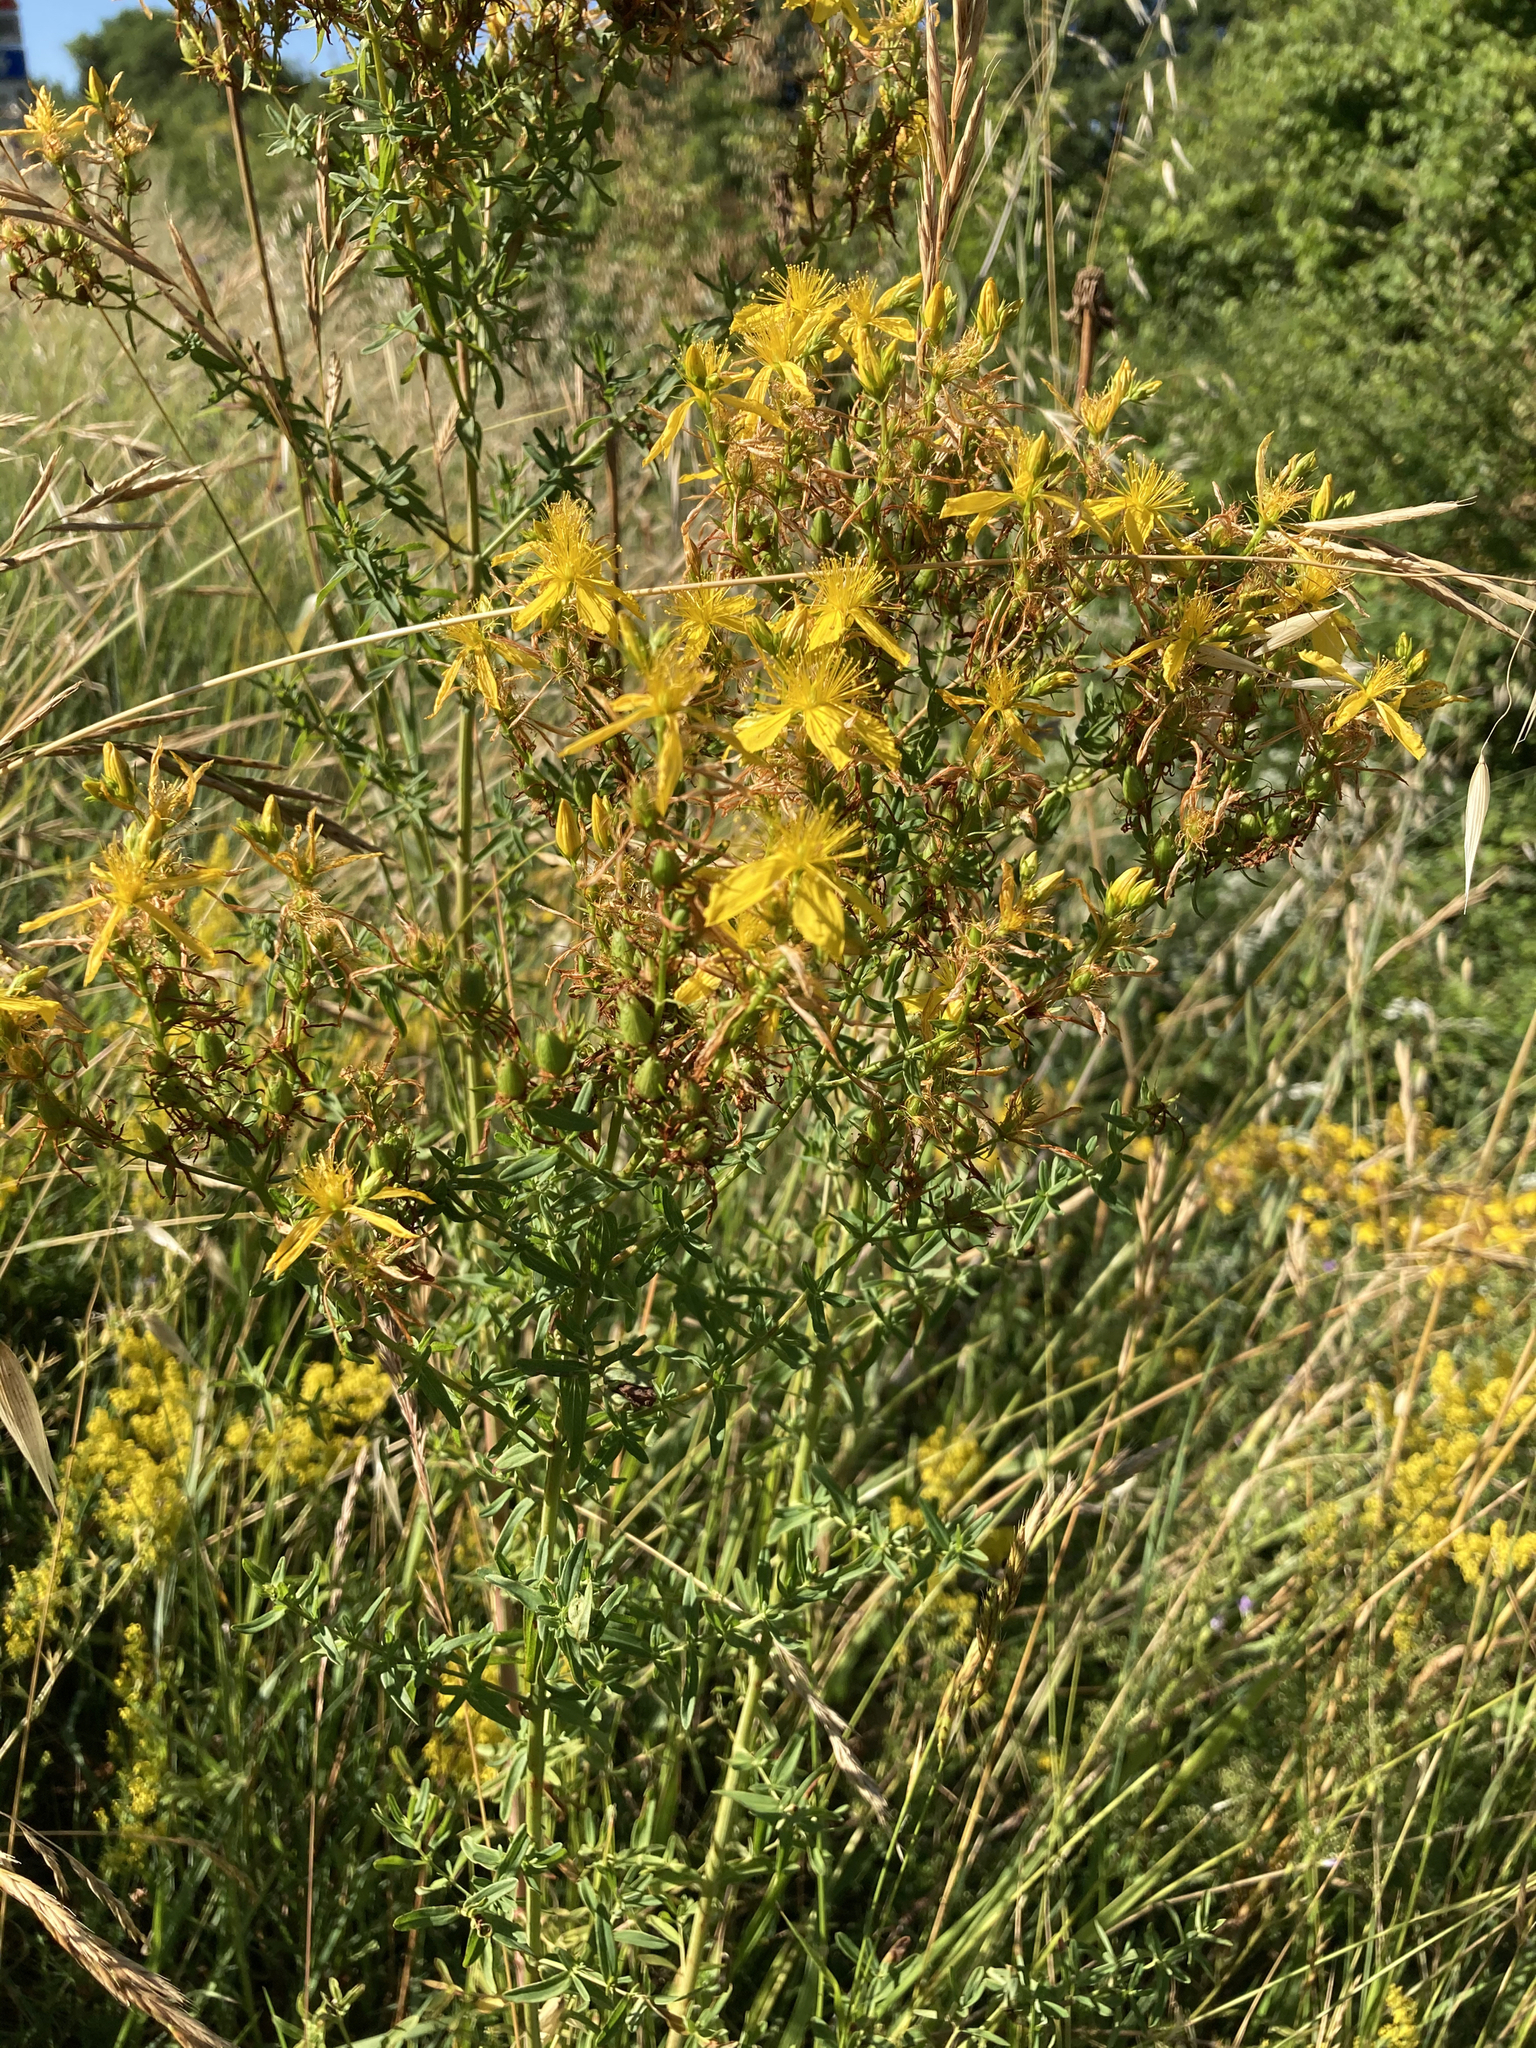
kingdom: Plantae
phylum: Tracheophyta
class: Magnoliopsida
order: Malpighiales
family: Hypericaceae
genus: Hypericum
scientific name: Hypericum perforatum
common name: Common st. johnswort
